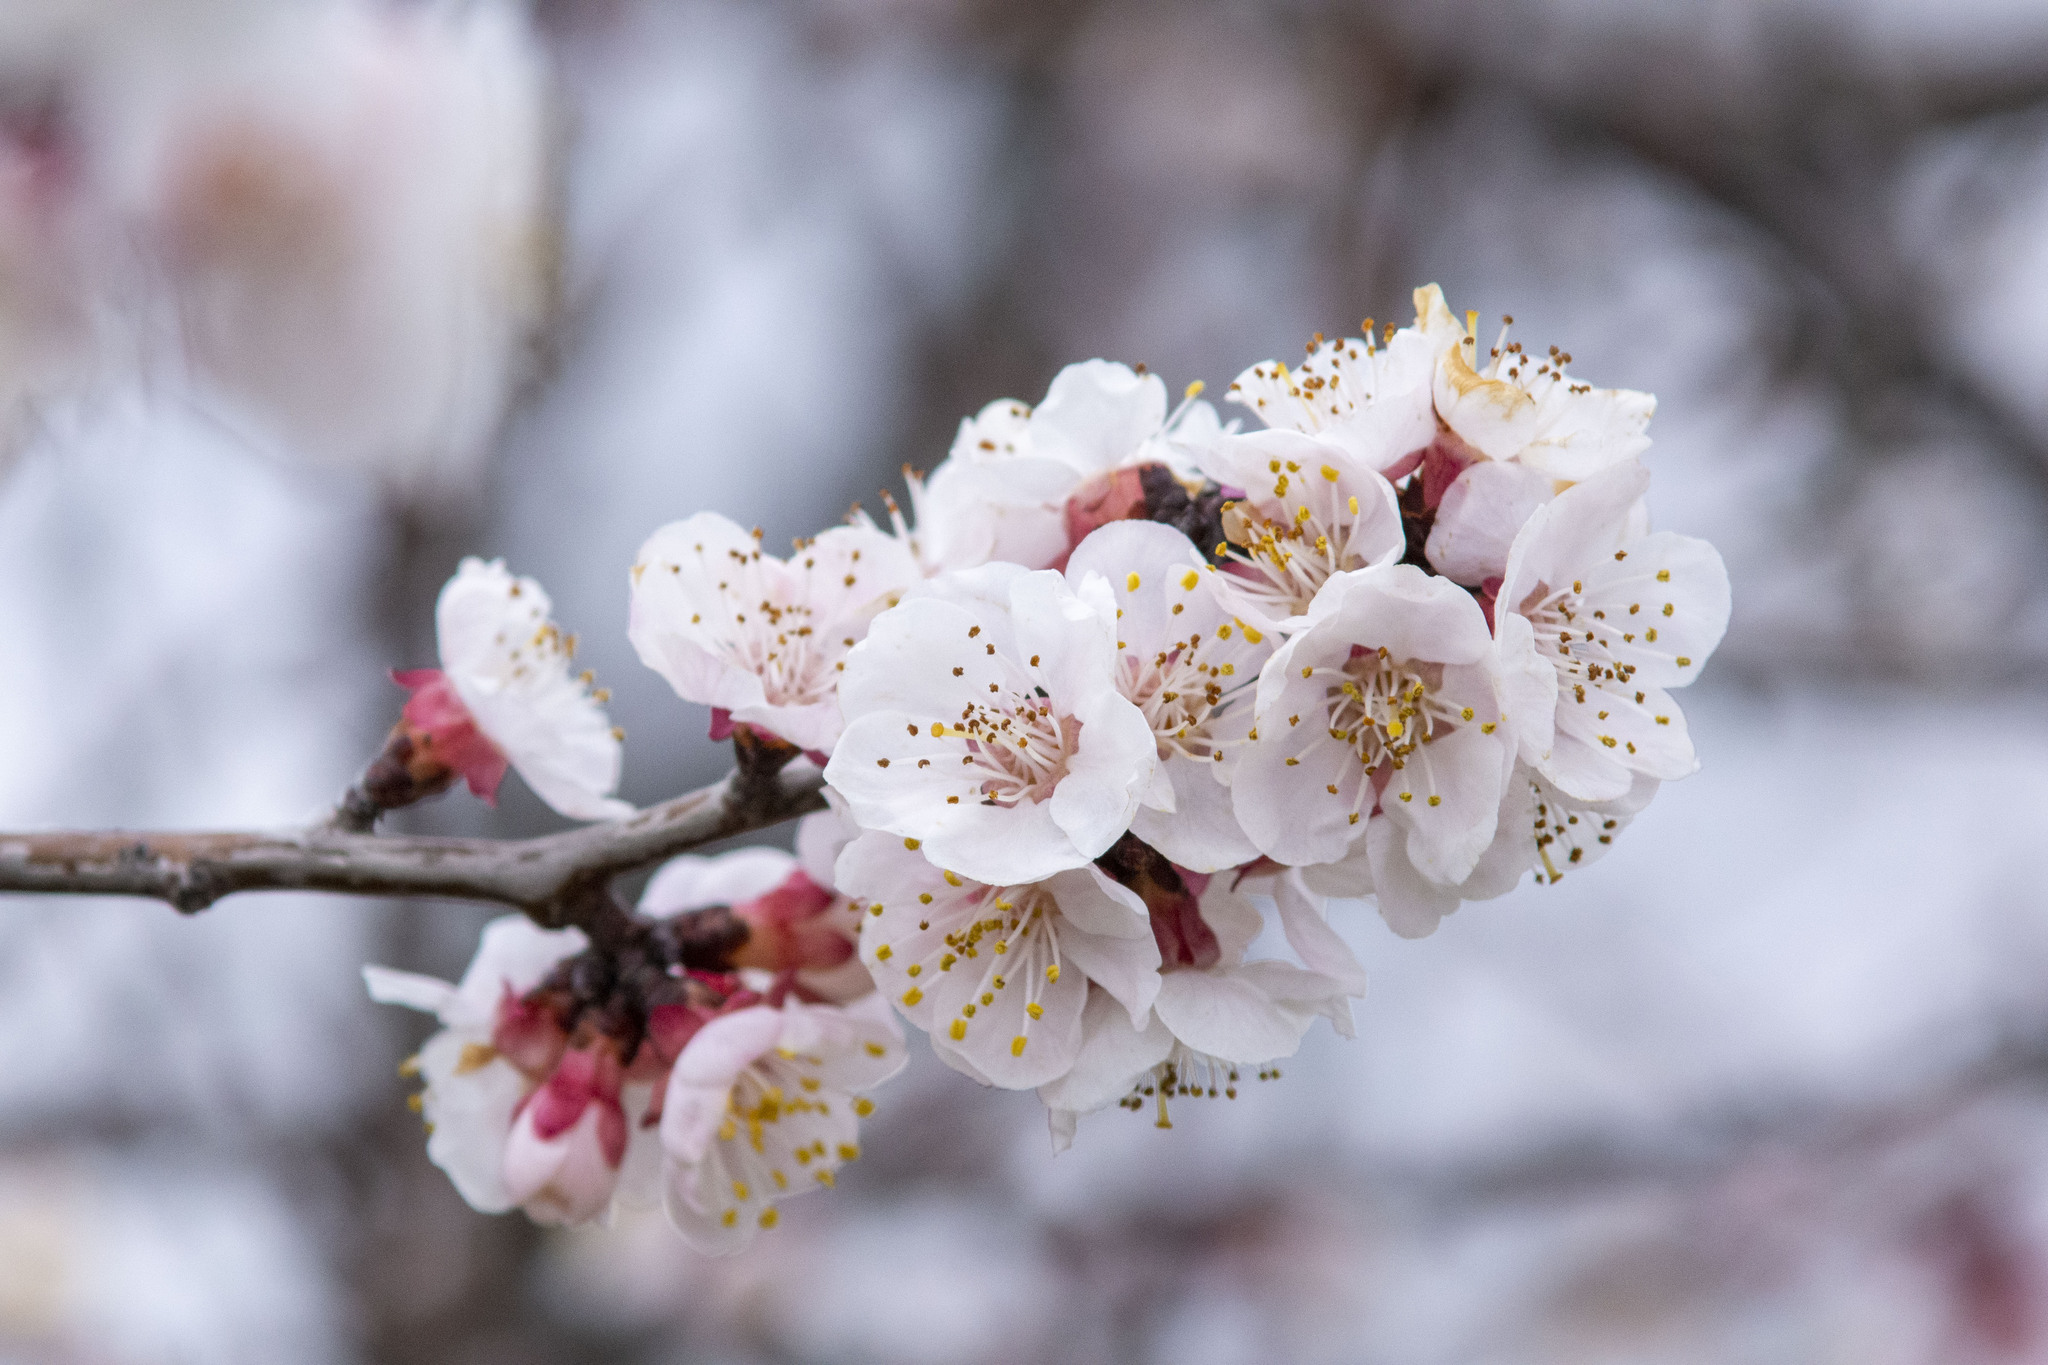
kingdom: Plantae
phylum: Tracheophyta
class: Magnoliopsida
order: Rosales
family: Rosaceae
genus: Prunus
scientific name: Prunus armeniaca
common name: Apricot
